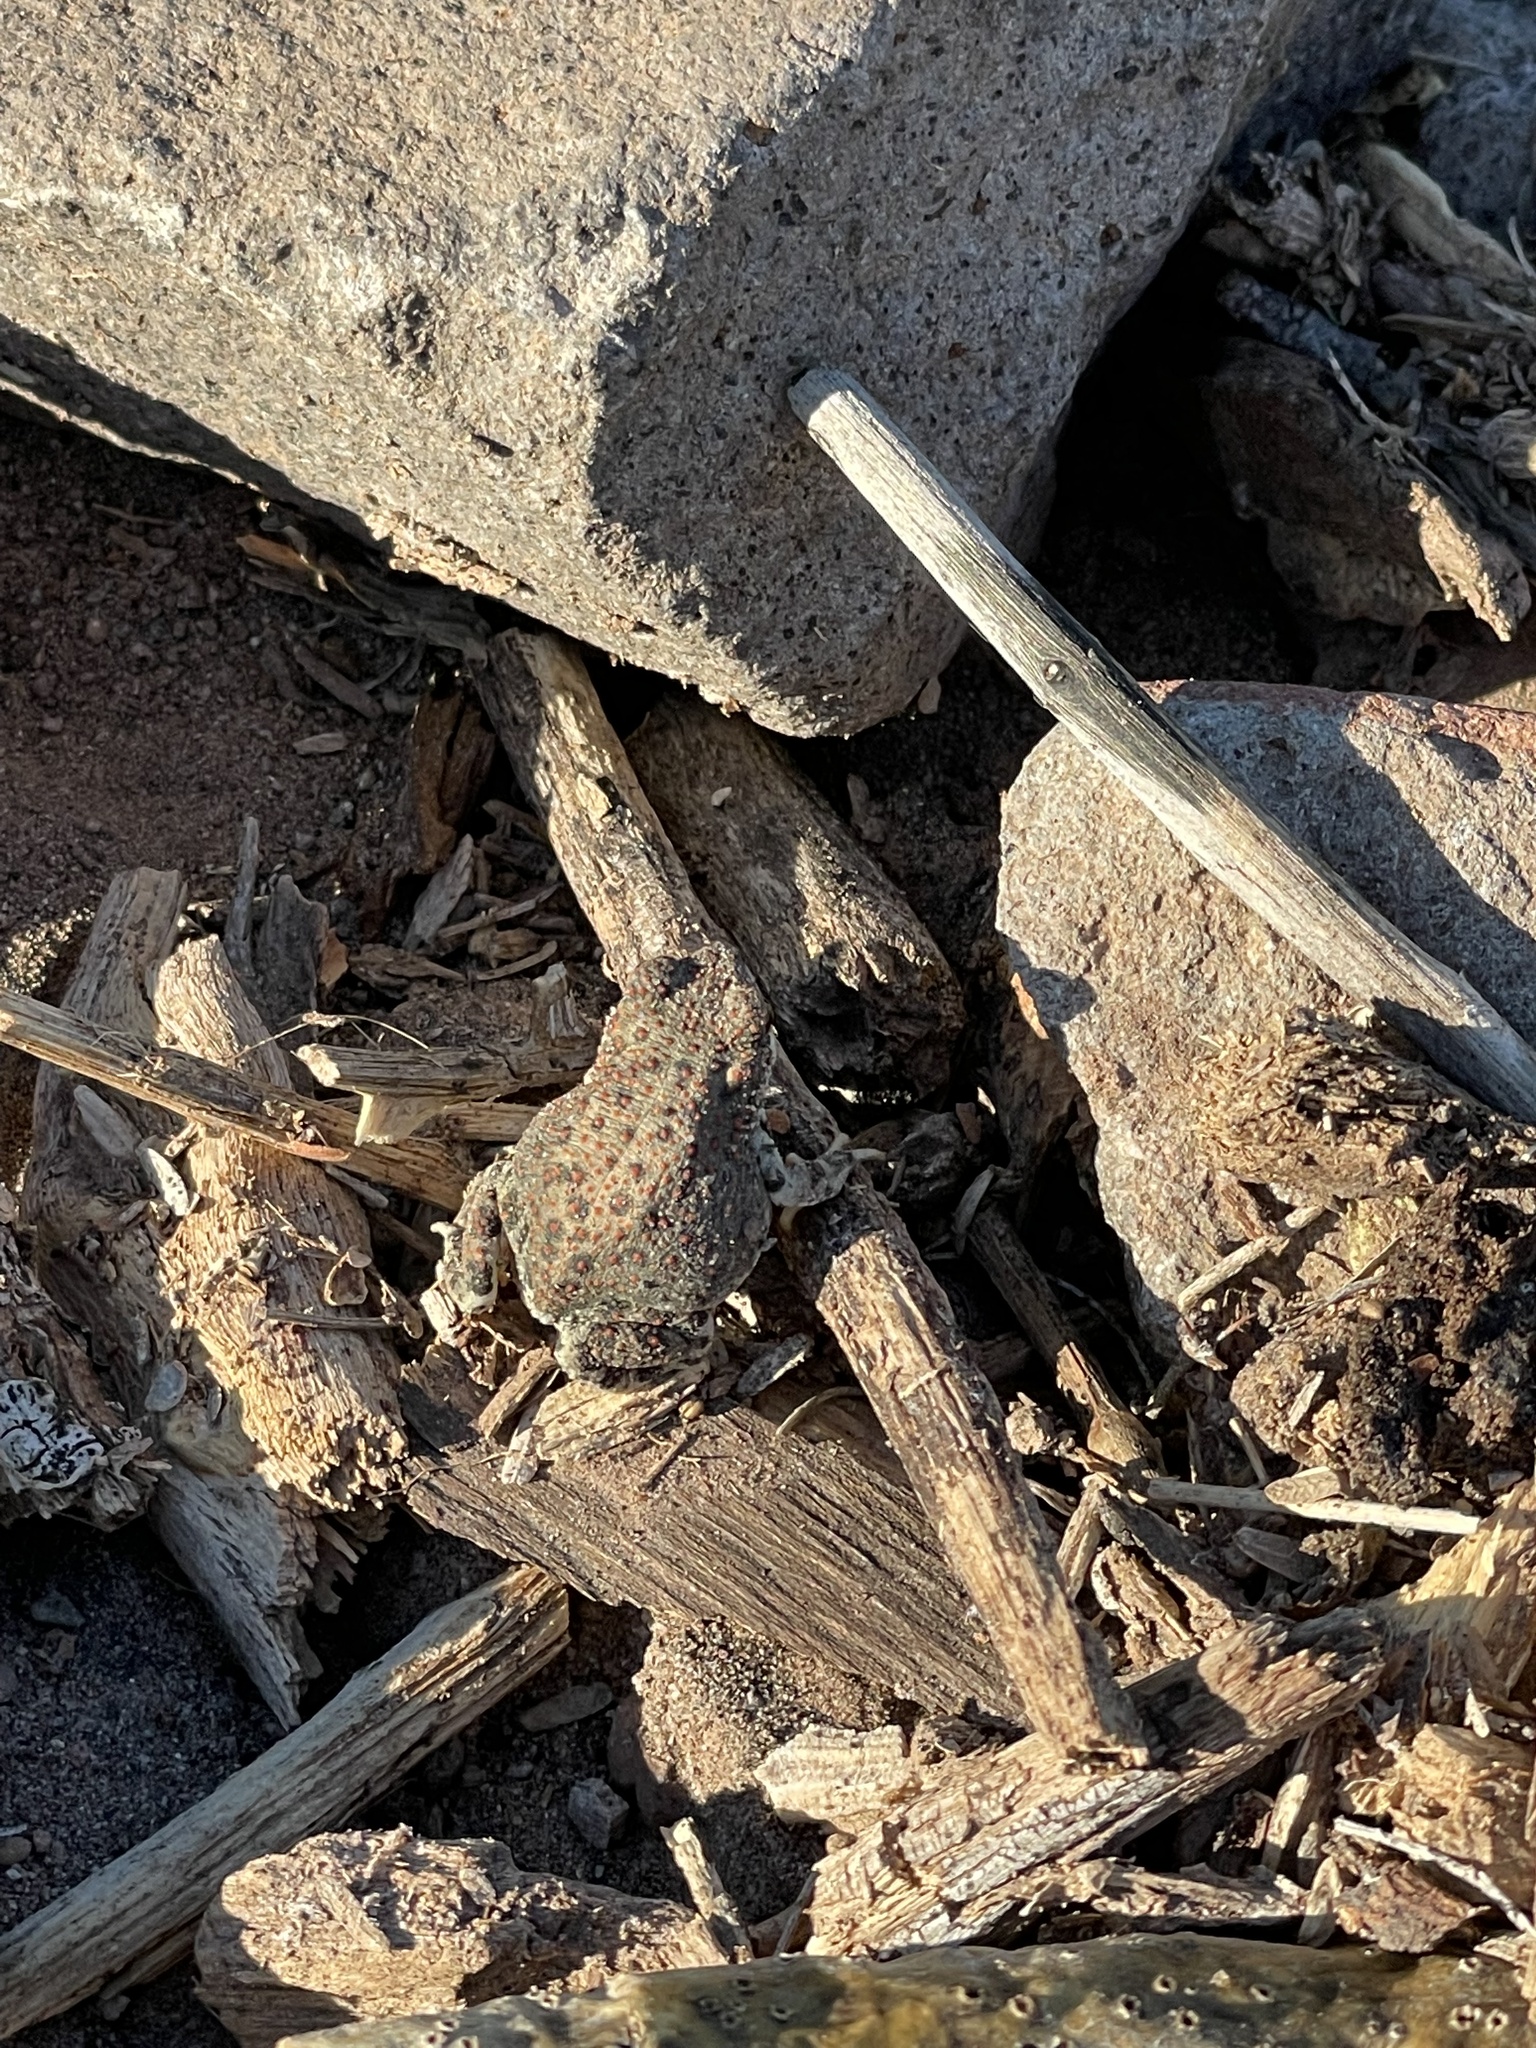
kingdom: Animalia
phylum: Chordata
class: Amphibia
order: Anura
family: Bufonidae
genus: Anaxyrus
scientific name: Anaxyrus punctatus
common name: Red-spotted toad
